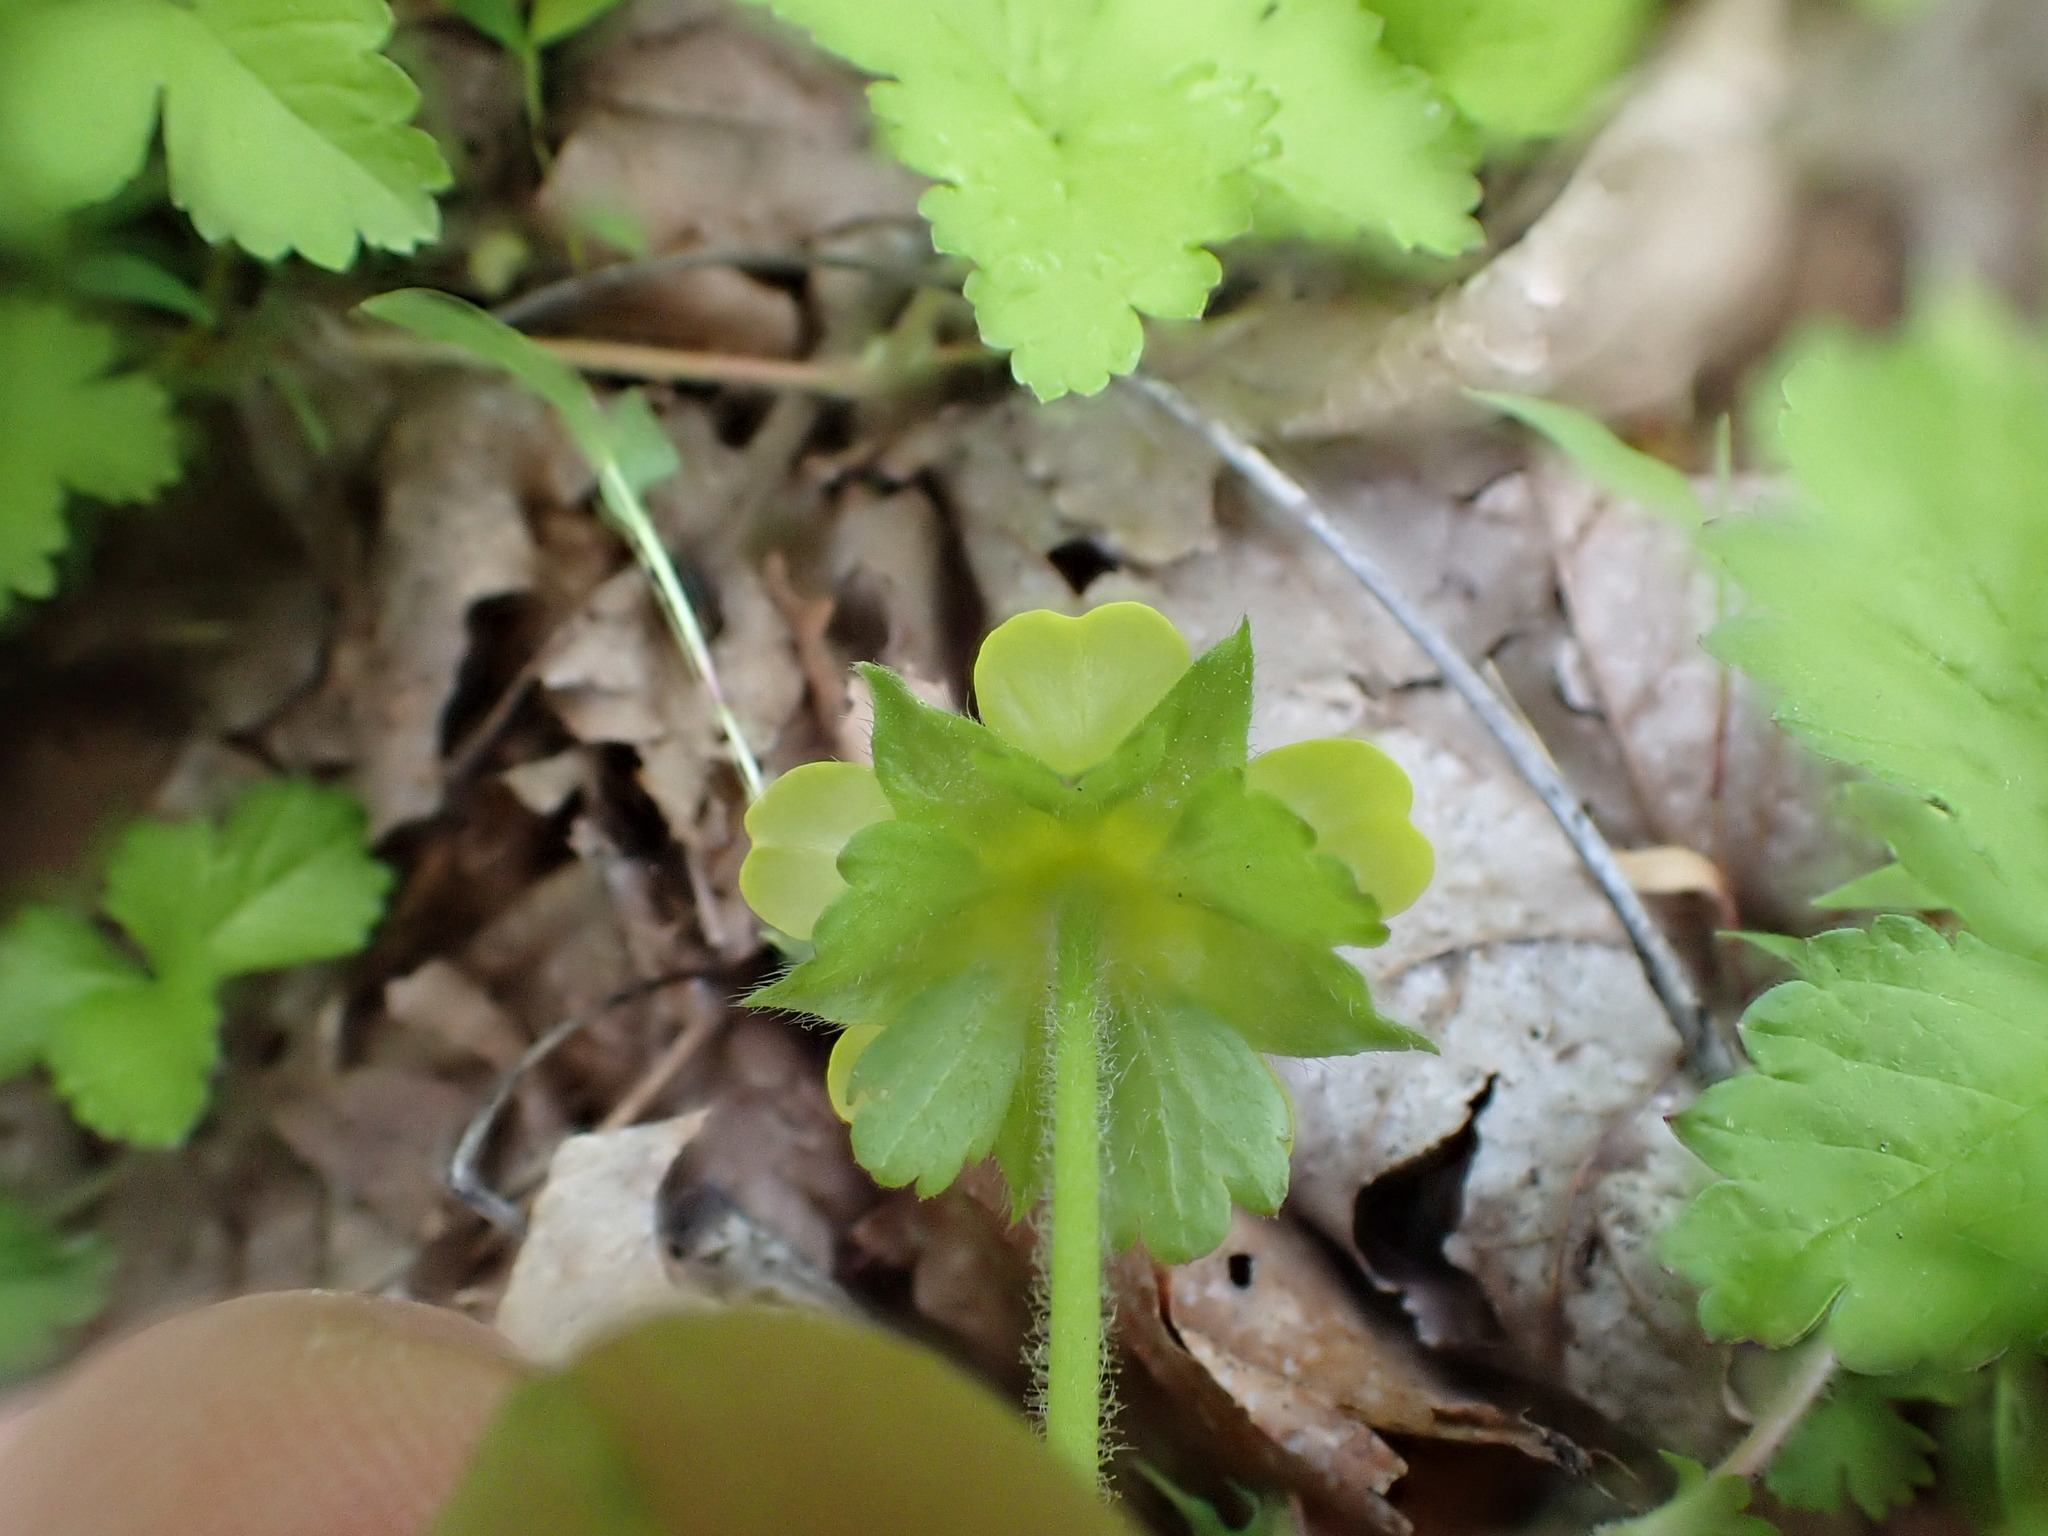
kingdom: Plantae
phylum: Tracheophyta
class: Magnoliopsida
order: Rosales
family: Rosaceae
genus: Potentilla
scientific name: Potentilla indica
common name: Yellow-flowered strawberry
